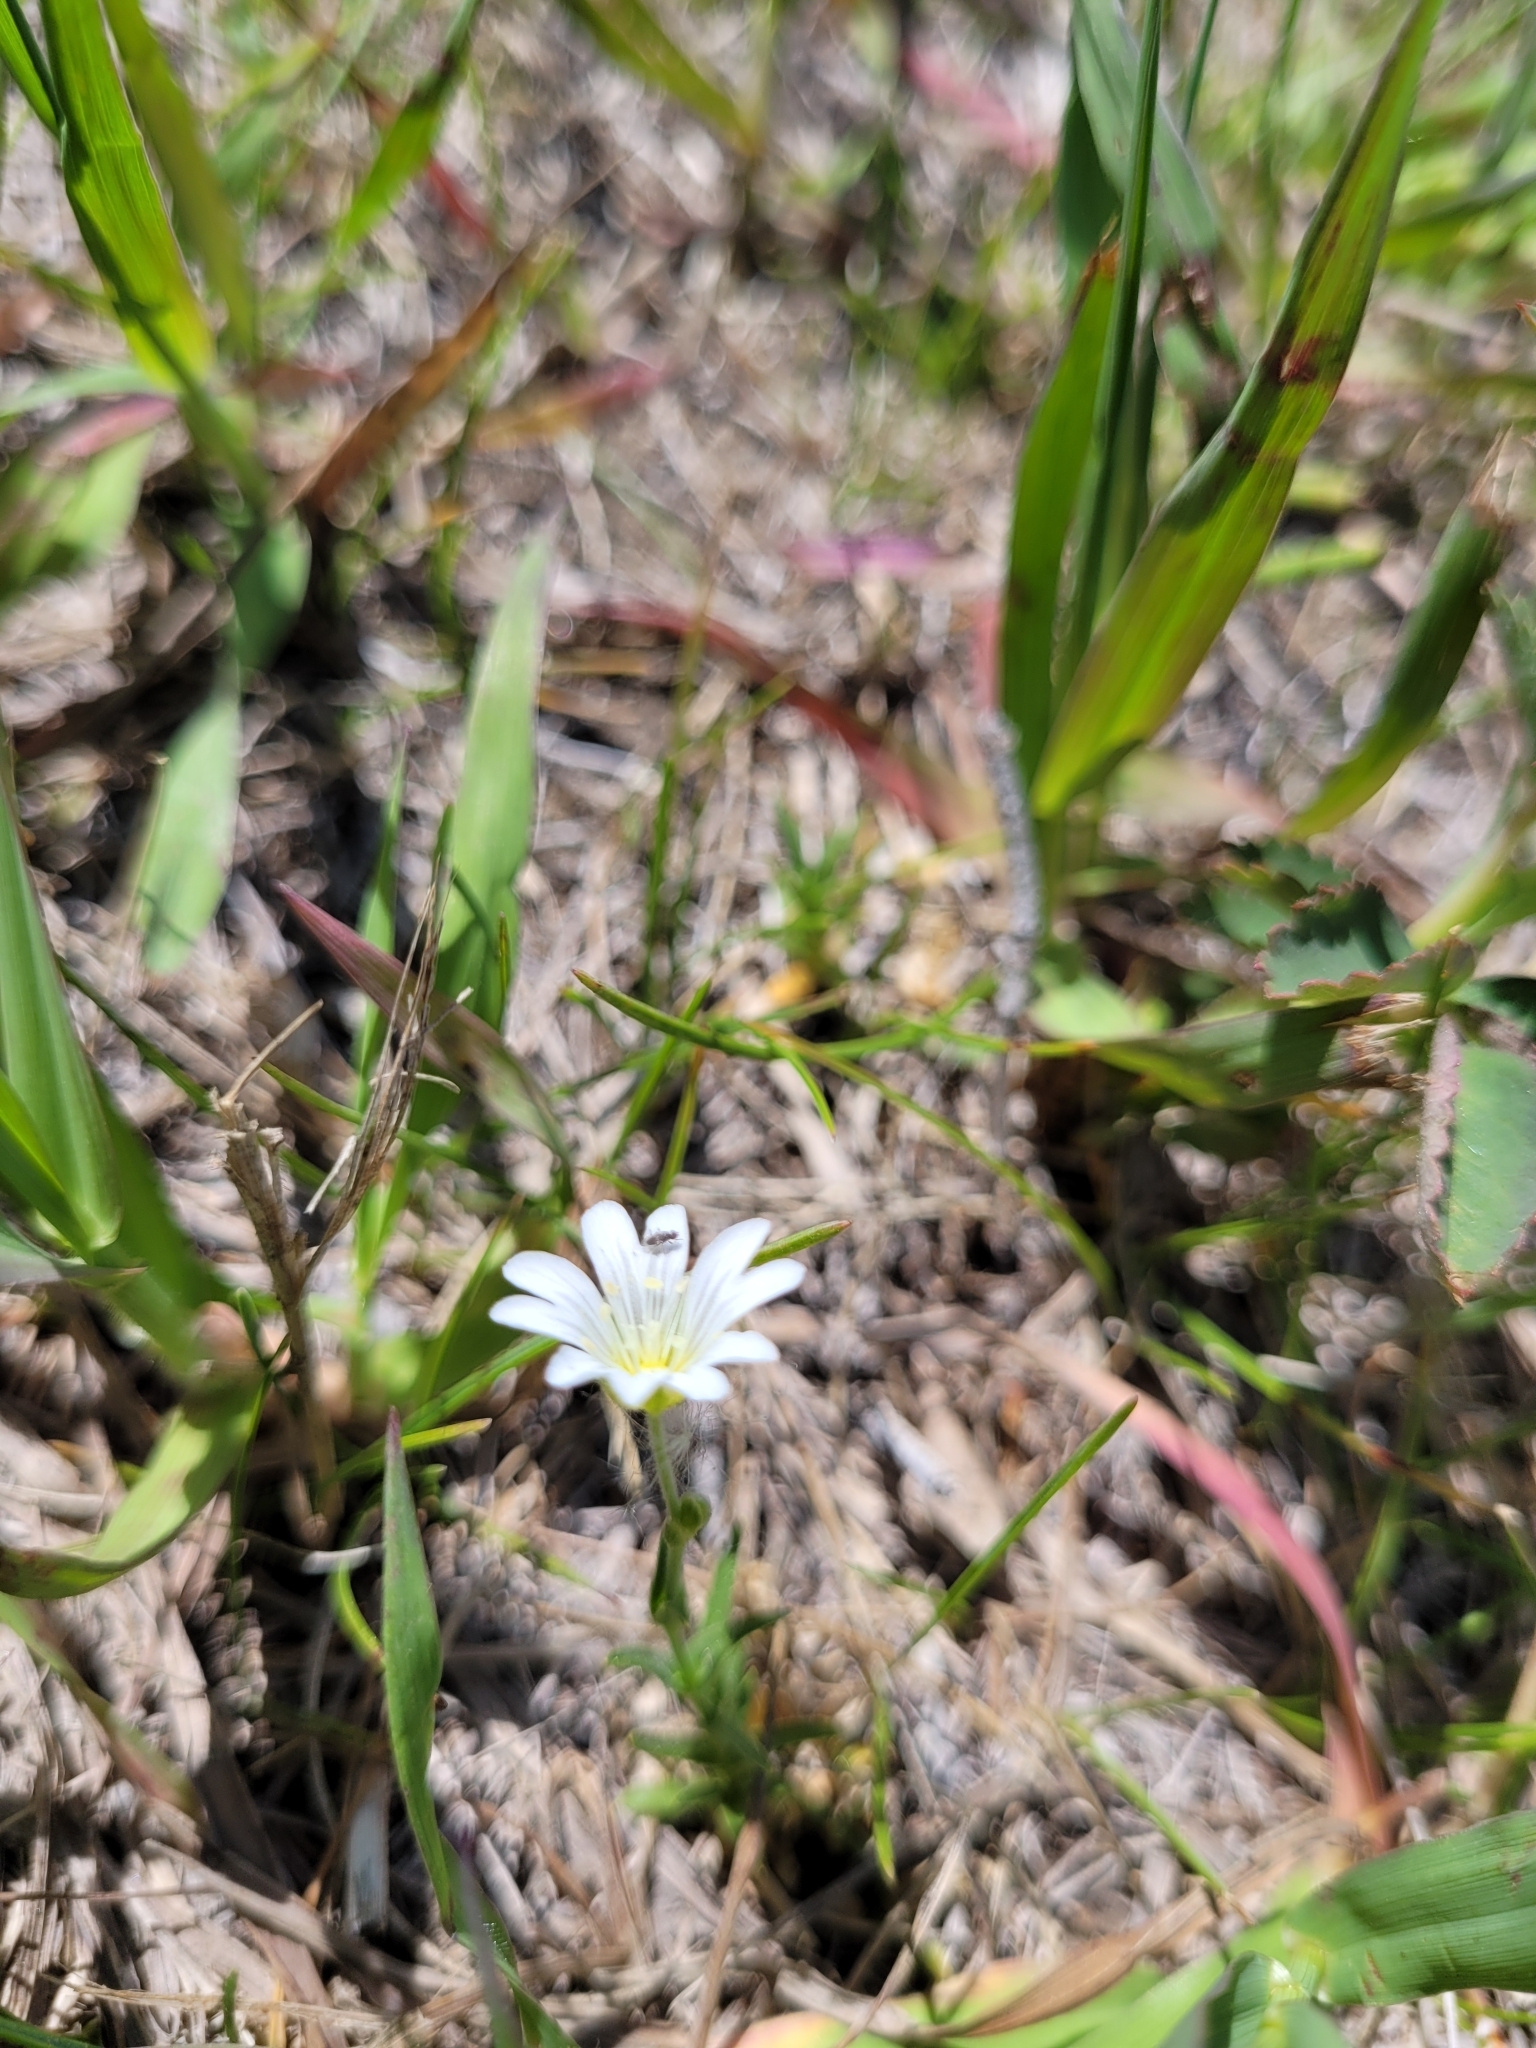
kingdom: Plantae
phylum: Tracheophyta
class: Magnoliopsida
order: Caryophyllales
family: Caryophyllaceae
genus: Cerastium
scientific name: Cerastium arvense
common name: Field mouse-ear
